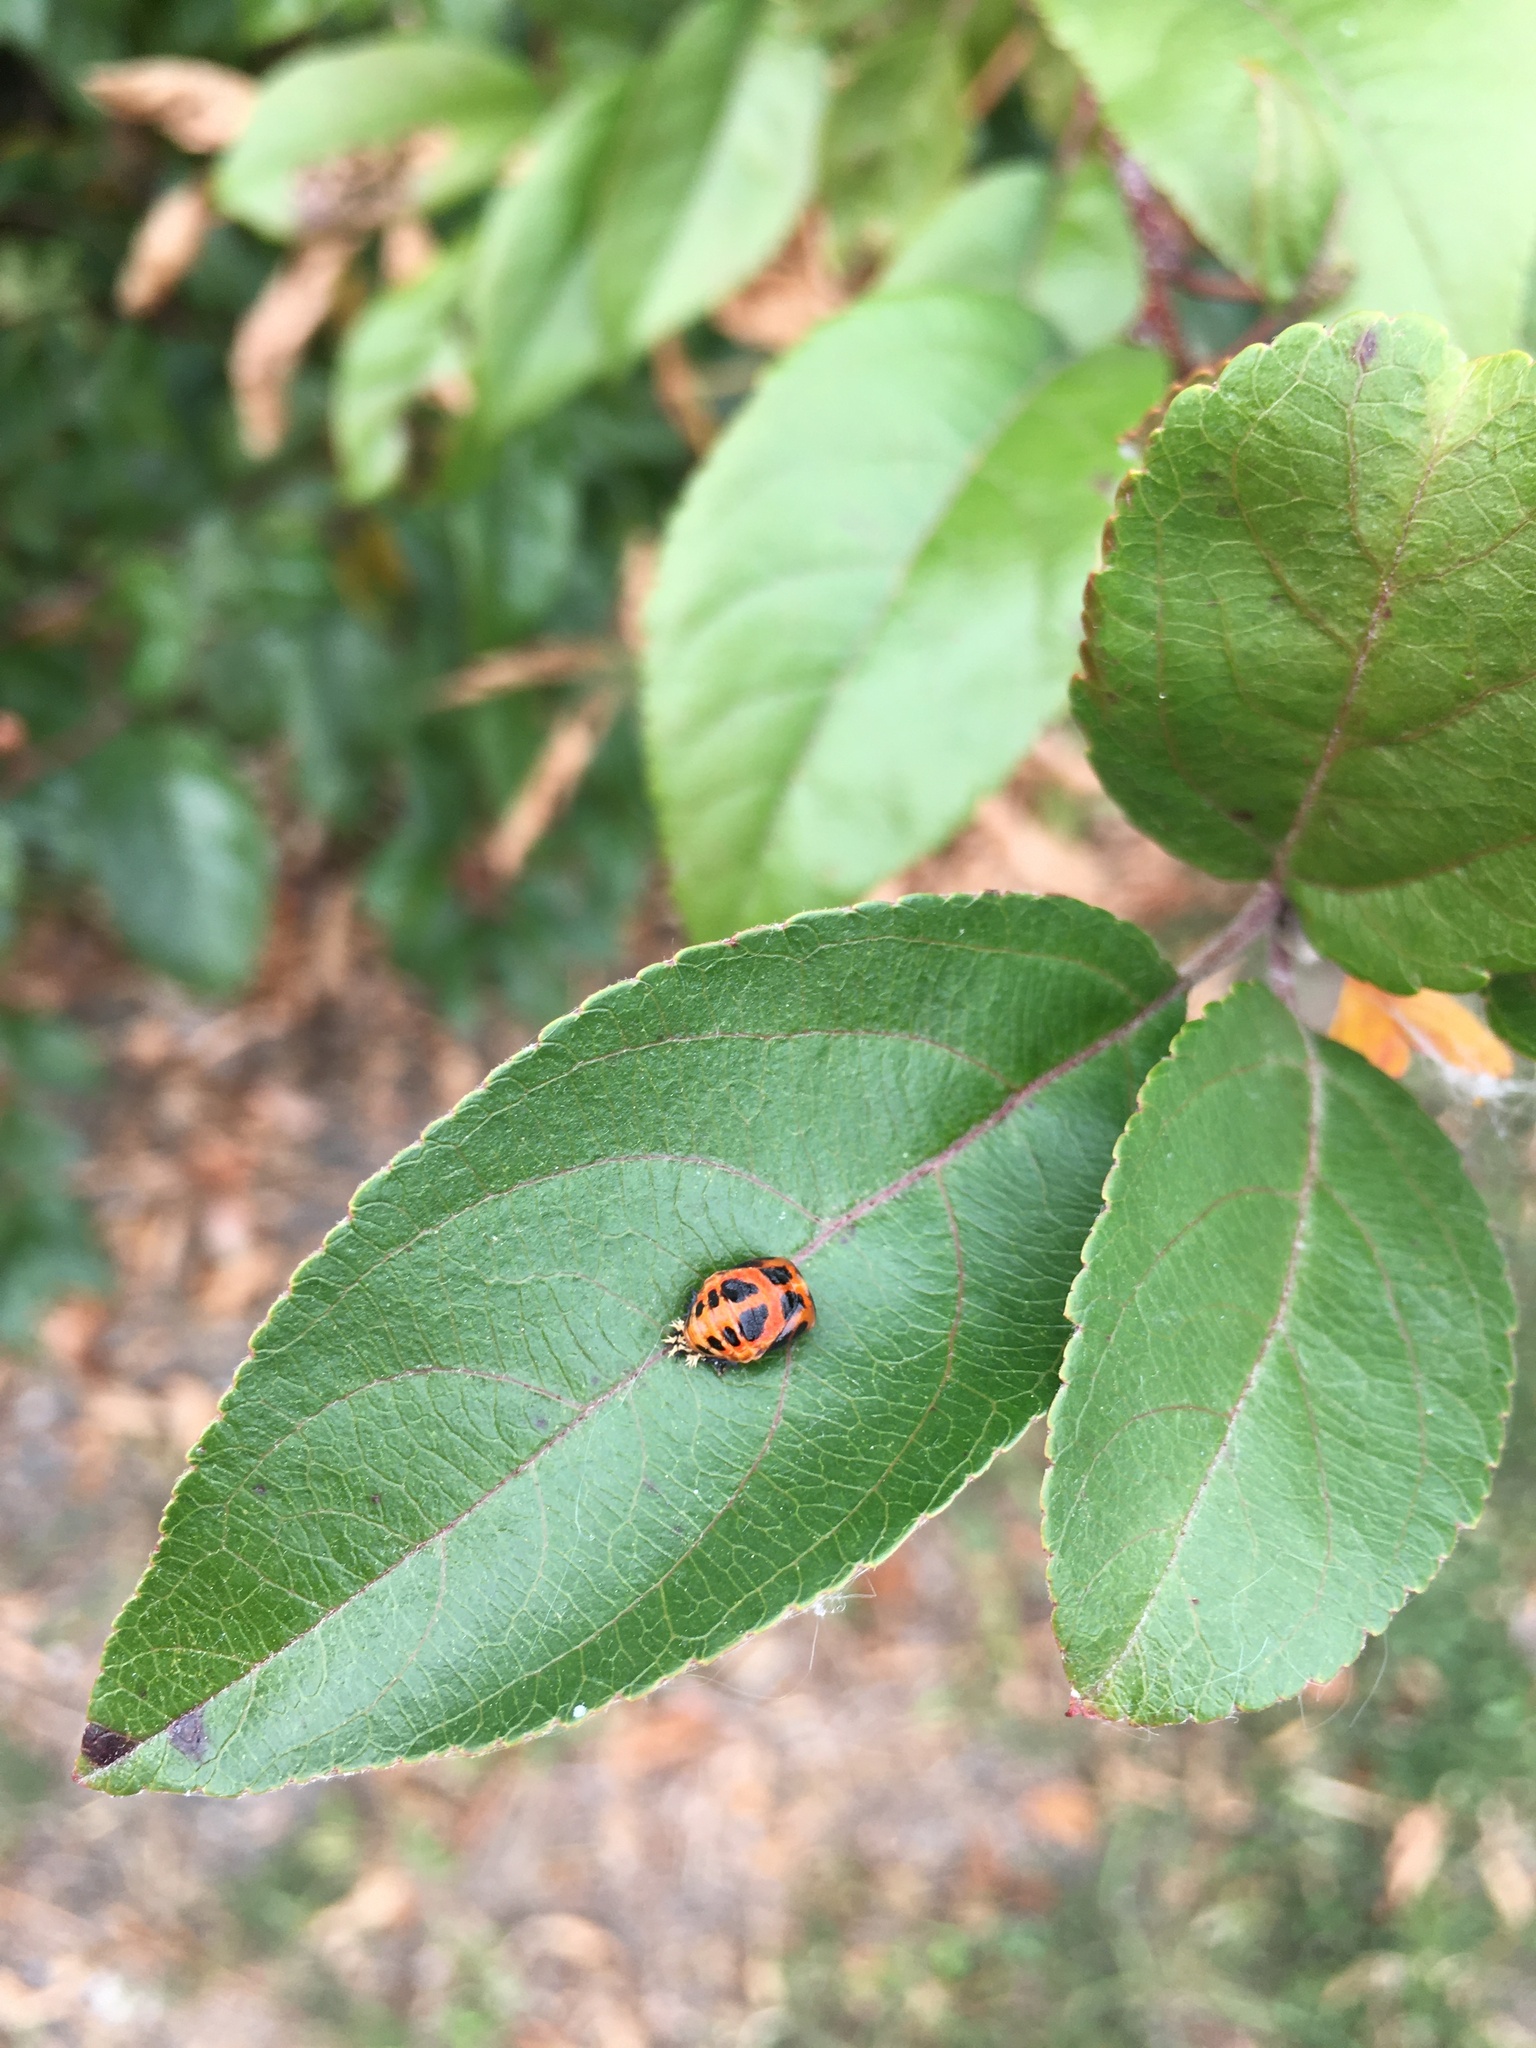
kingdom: Animalia
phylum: Arthropoda
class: Insecta
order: Coleoptera
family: Coccinellidae
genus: Harmonia
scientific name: Harmonia axyridis
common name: Harlequin ladybird
